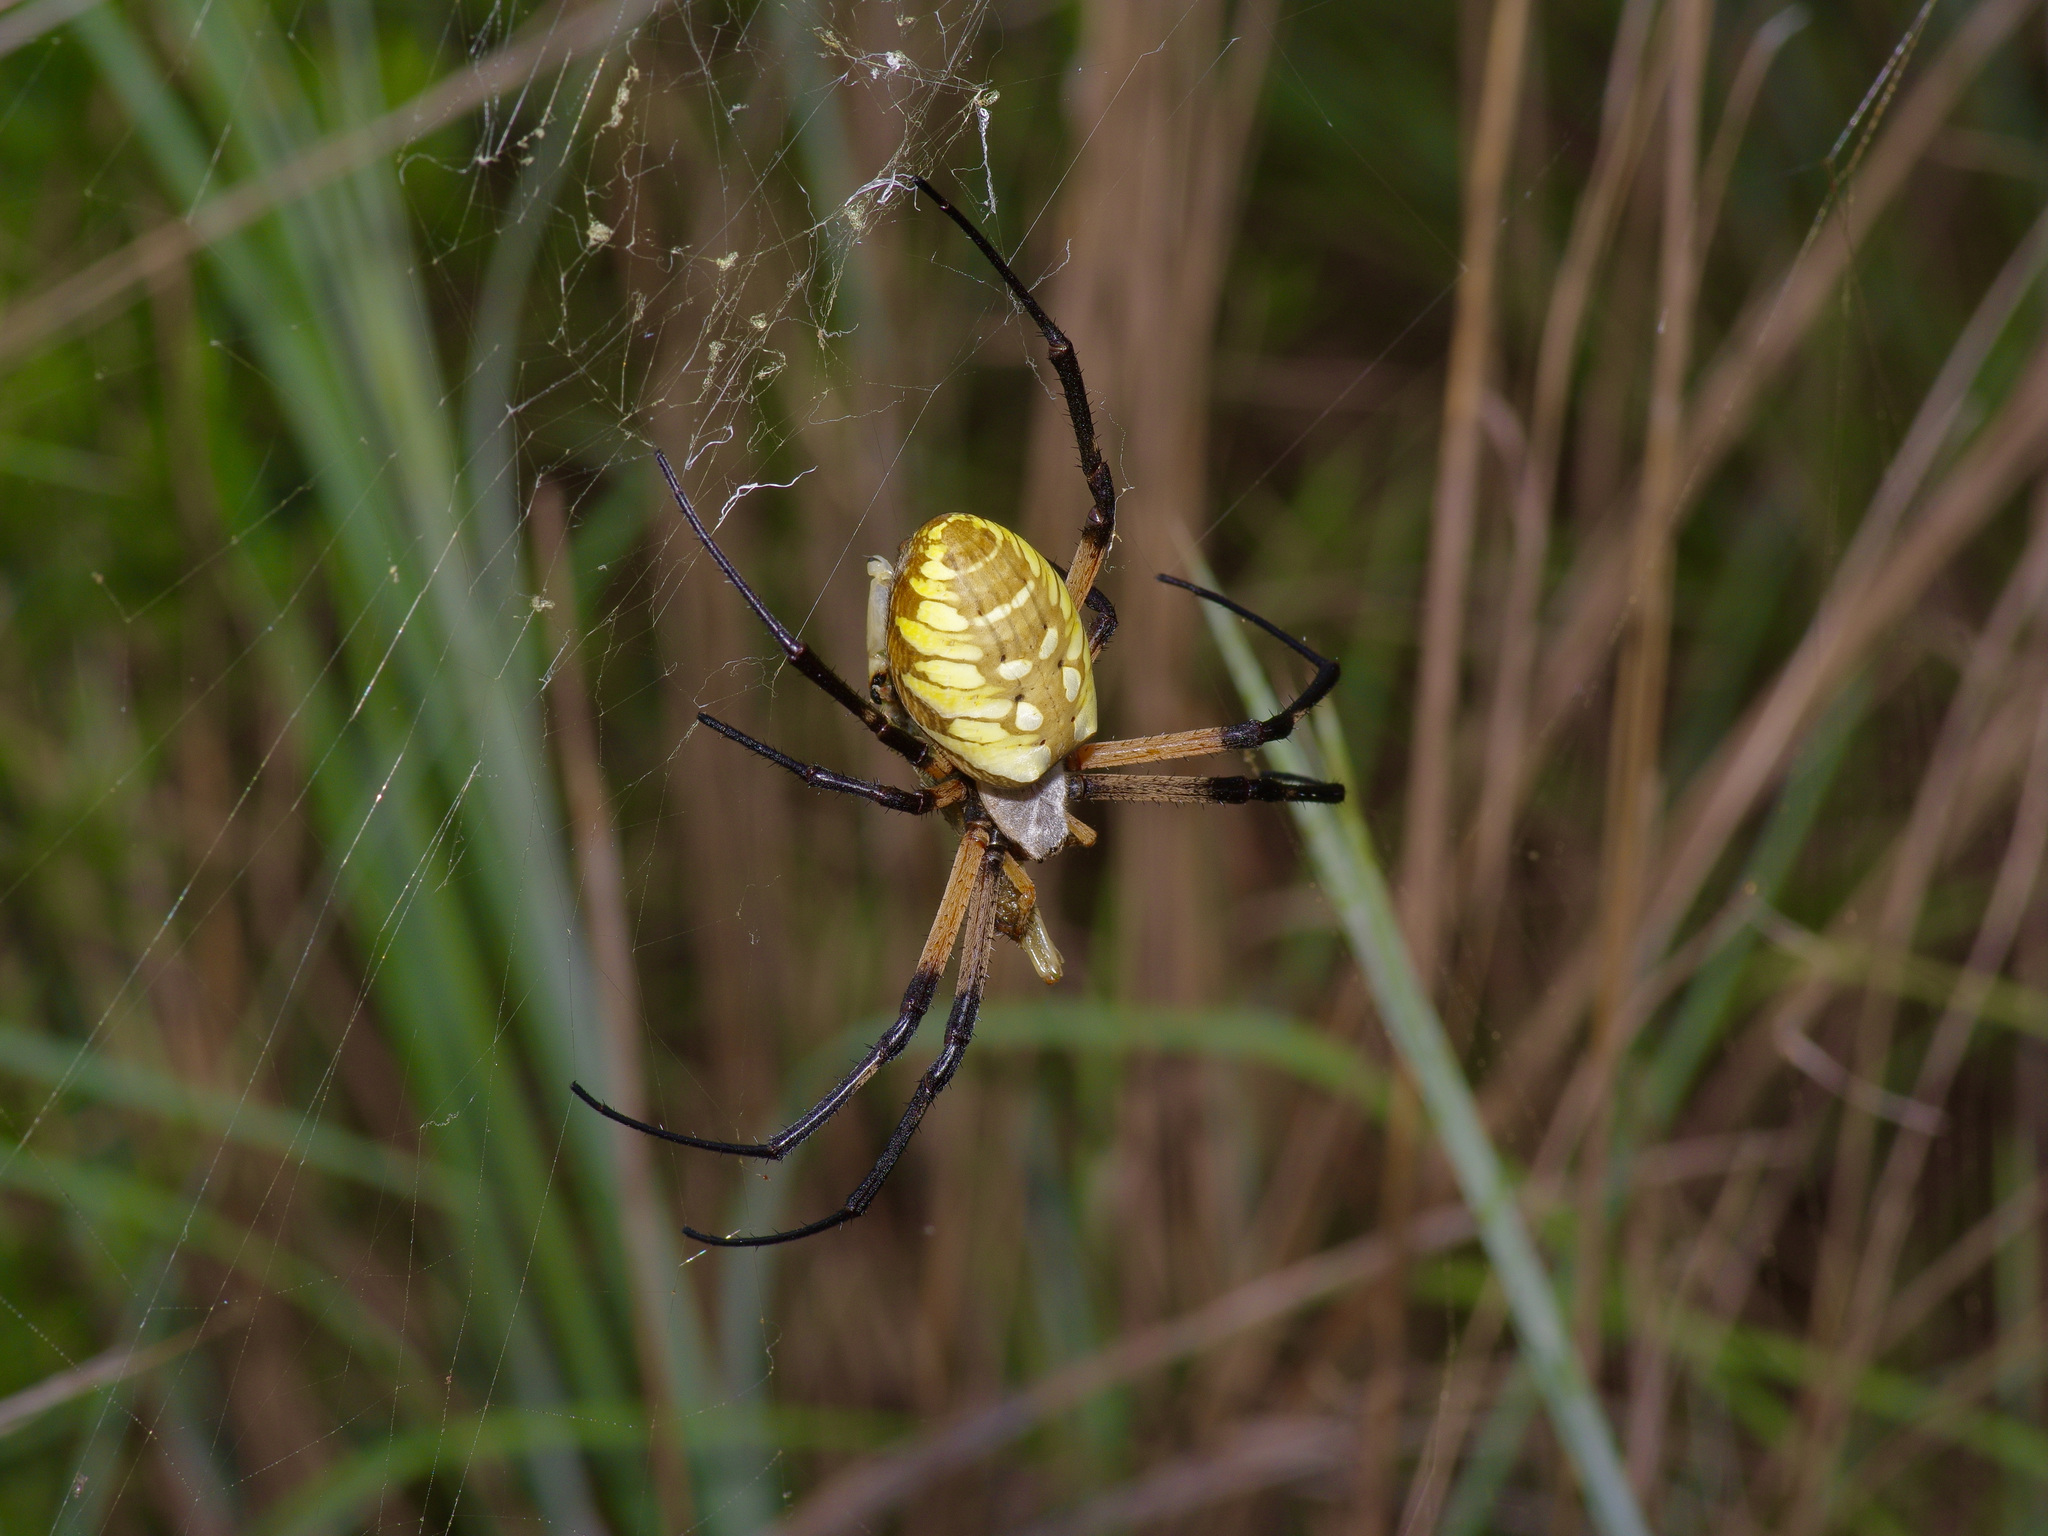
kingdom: Animalia
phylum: Arthropoda
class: Arachnida
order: Araneae
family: Araneidae
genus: Argiope
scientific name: Argiope aurantia
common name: Orb weavers
